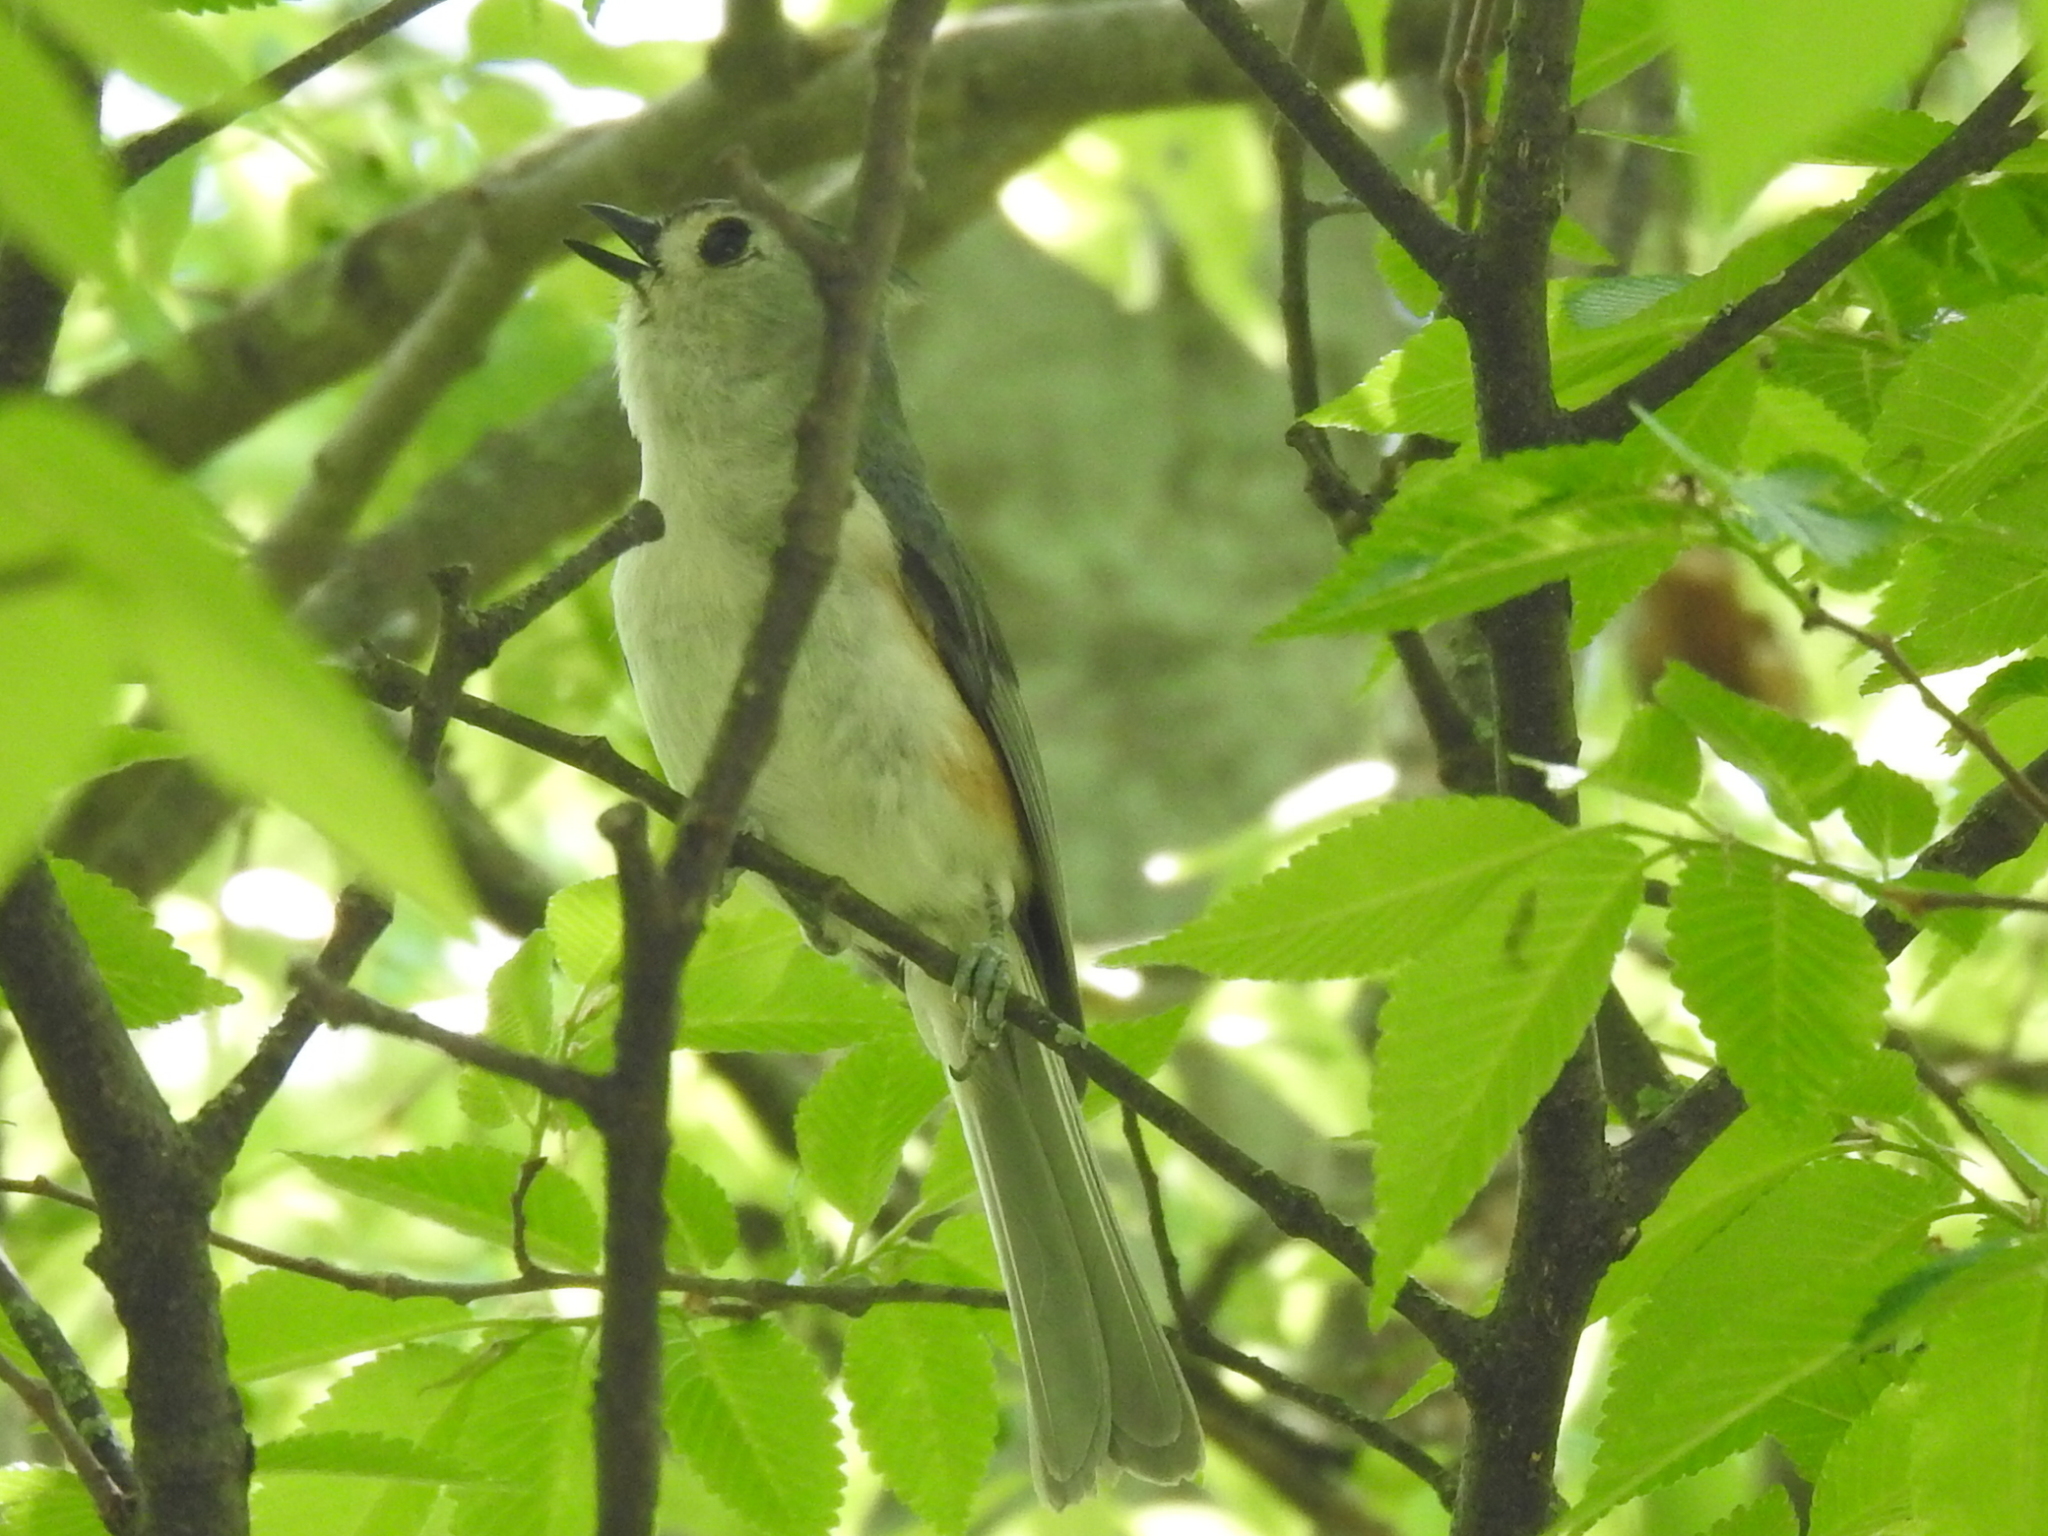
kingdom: Animalia
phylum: Chordata
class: Aves
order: Passeriformes
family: Paridae
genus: Baeolophus
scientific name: Baeolophus bicolor
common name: Tufted titmouse
